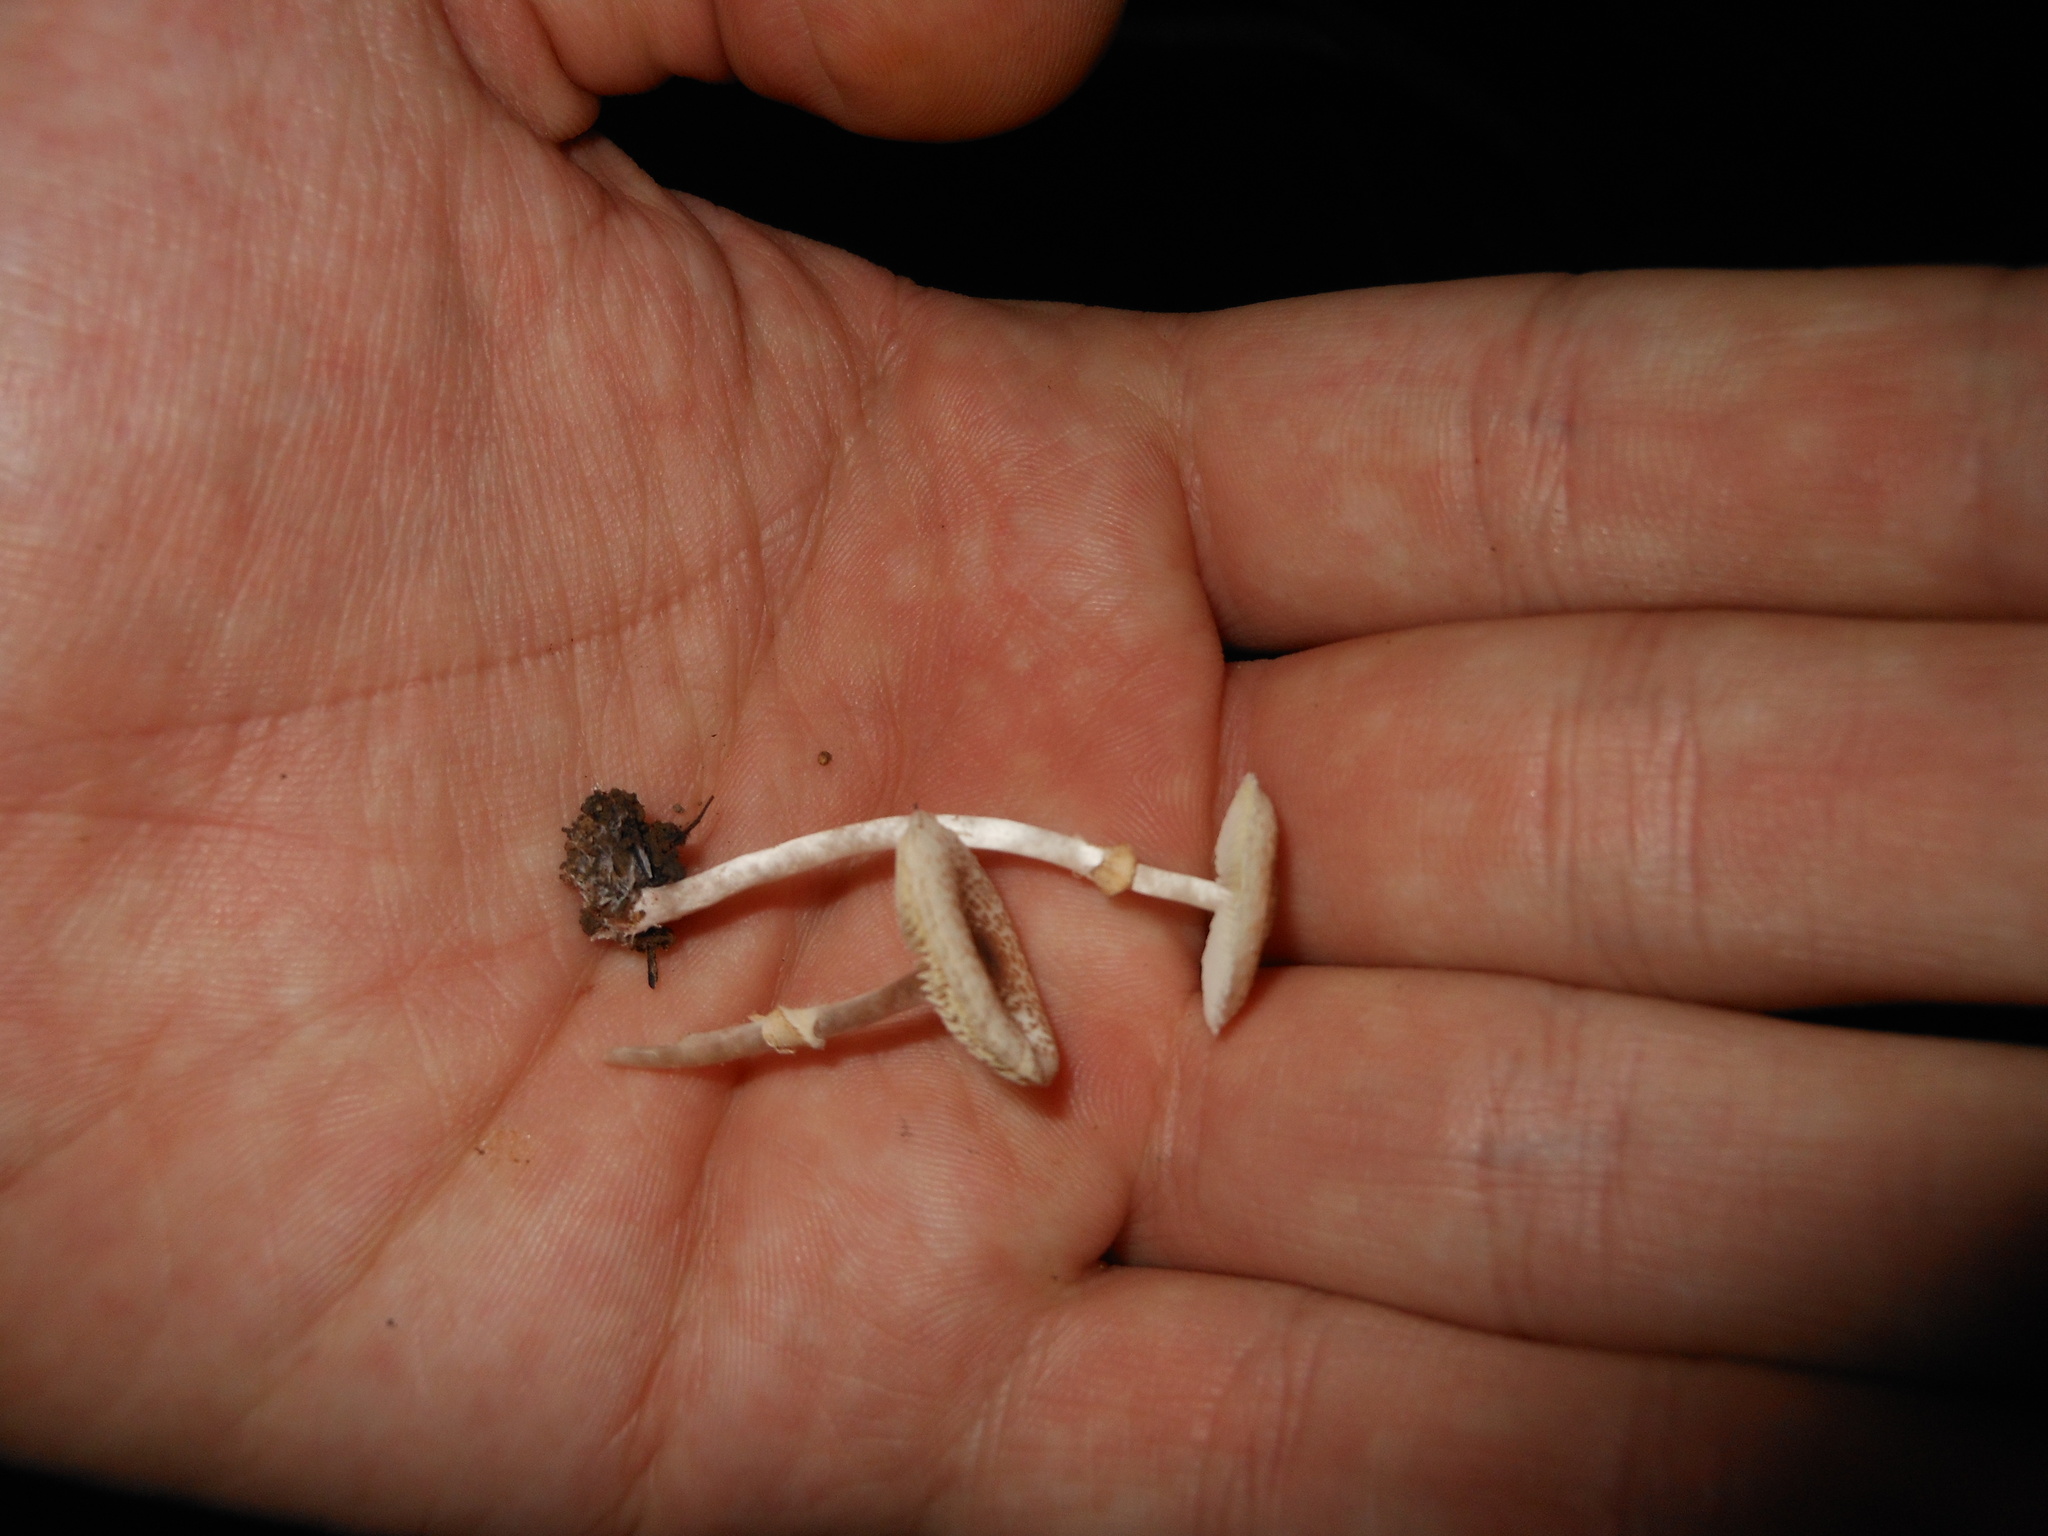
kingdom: Fungi
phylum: Basidiomycota
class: Agaricomycetes
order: Agaricales
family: Agaricaceae
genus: Lepiota
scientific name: Lepiota cristata
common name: Stinking dapperling
